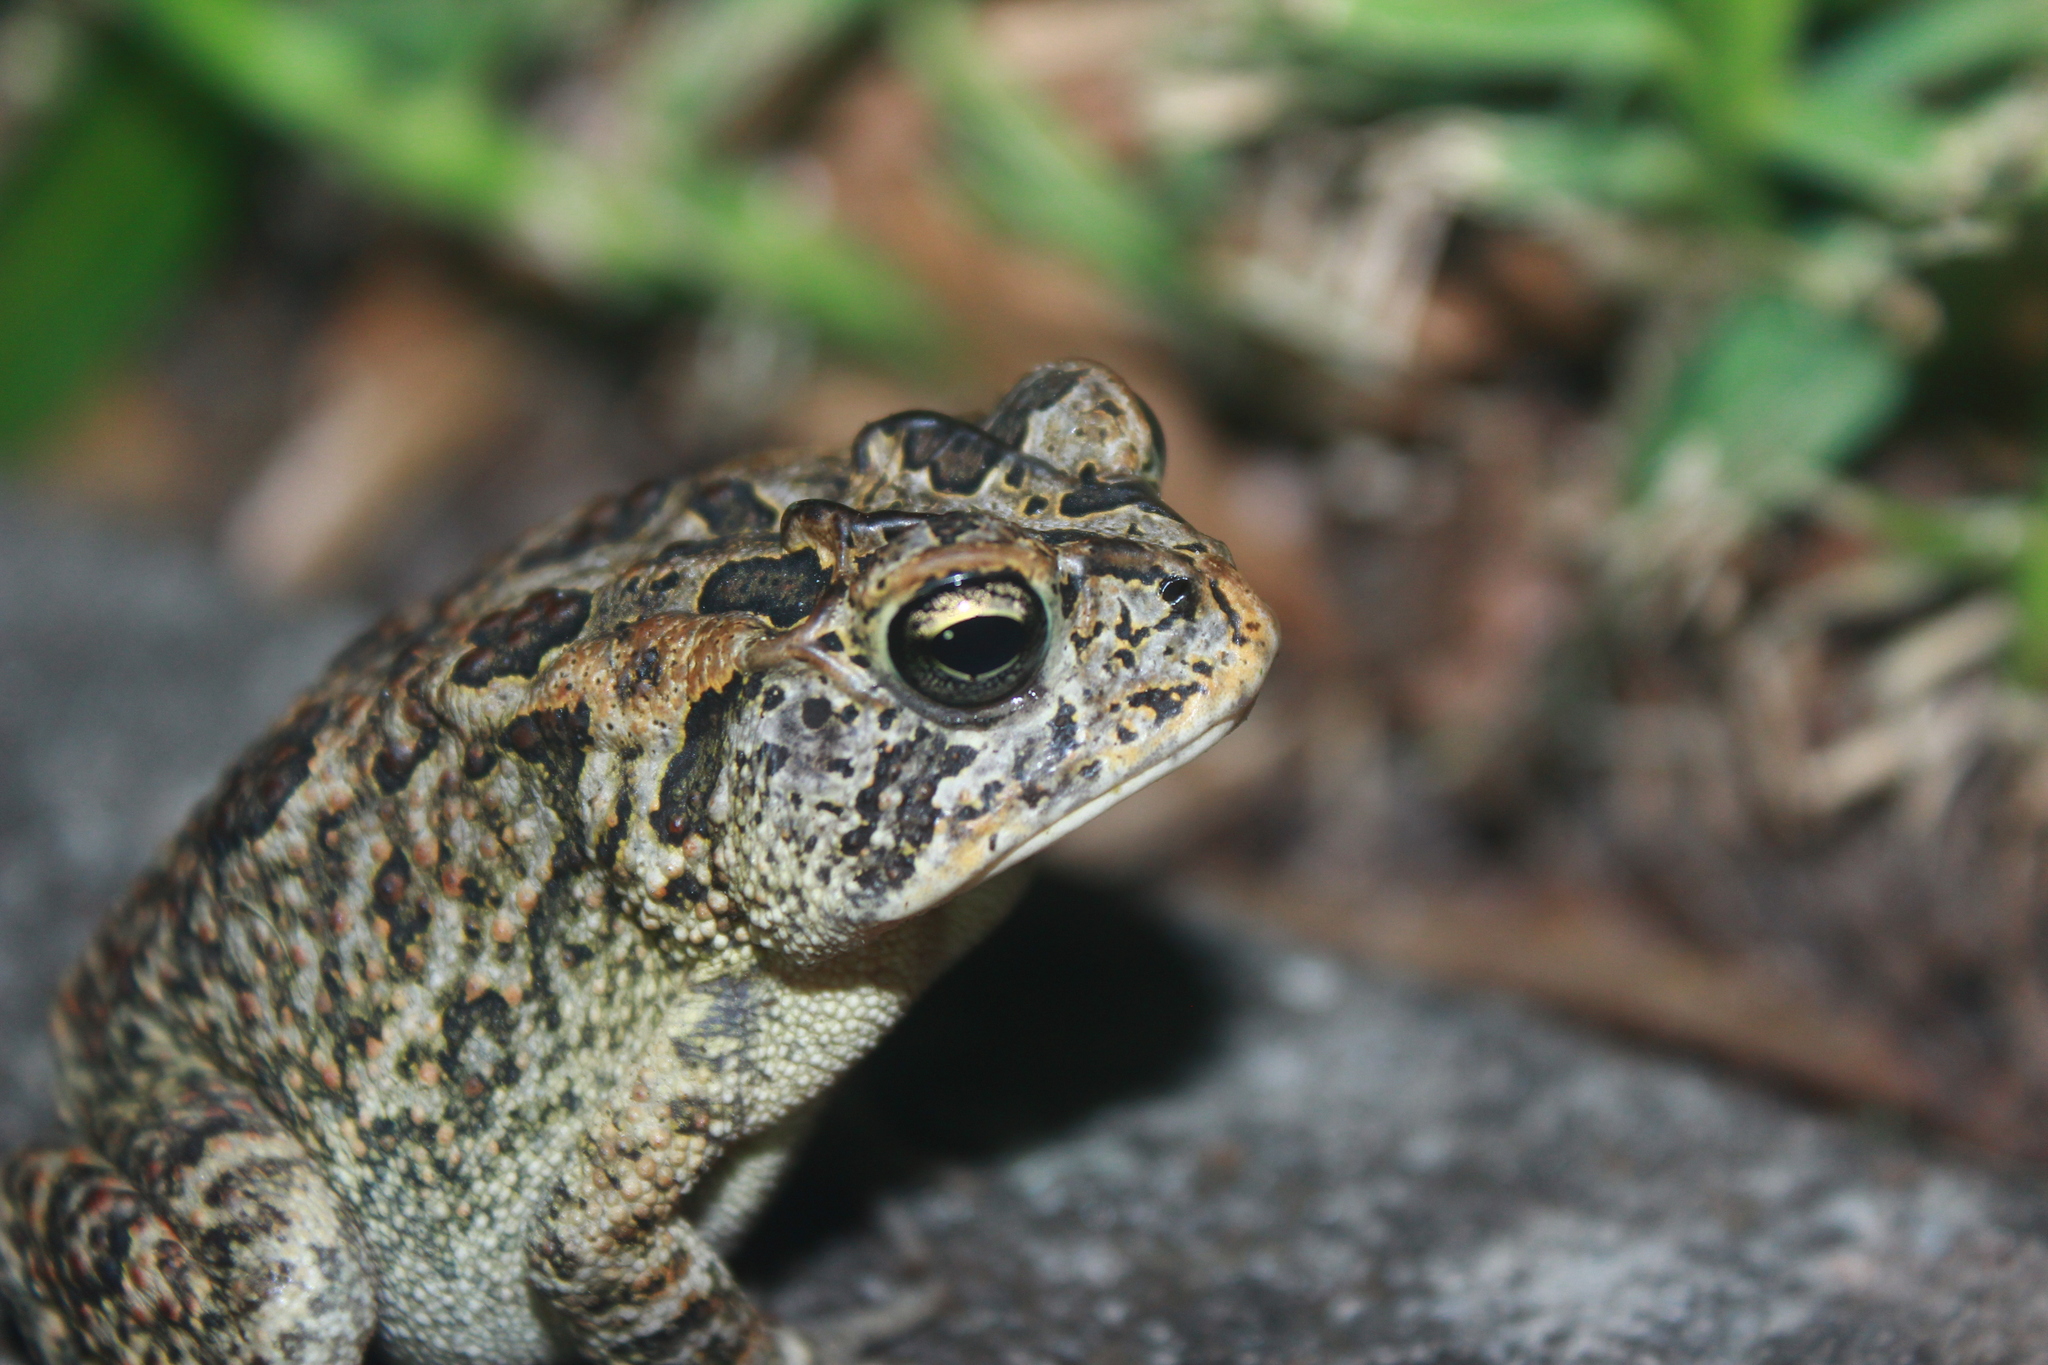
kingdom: Animalia
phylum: Chordata
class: Amphibia
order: Anura
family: Bufonidae
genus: Anaxyrus
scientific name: Anaxyrus terrestris
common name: Southern toad
